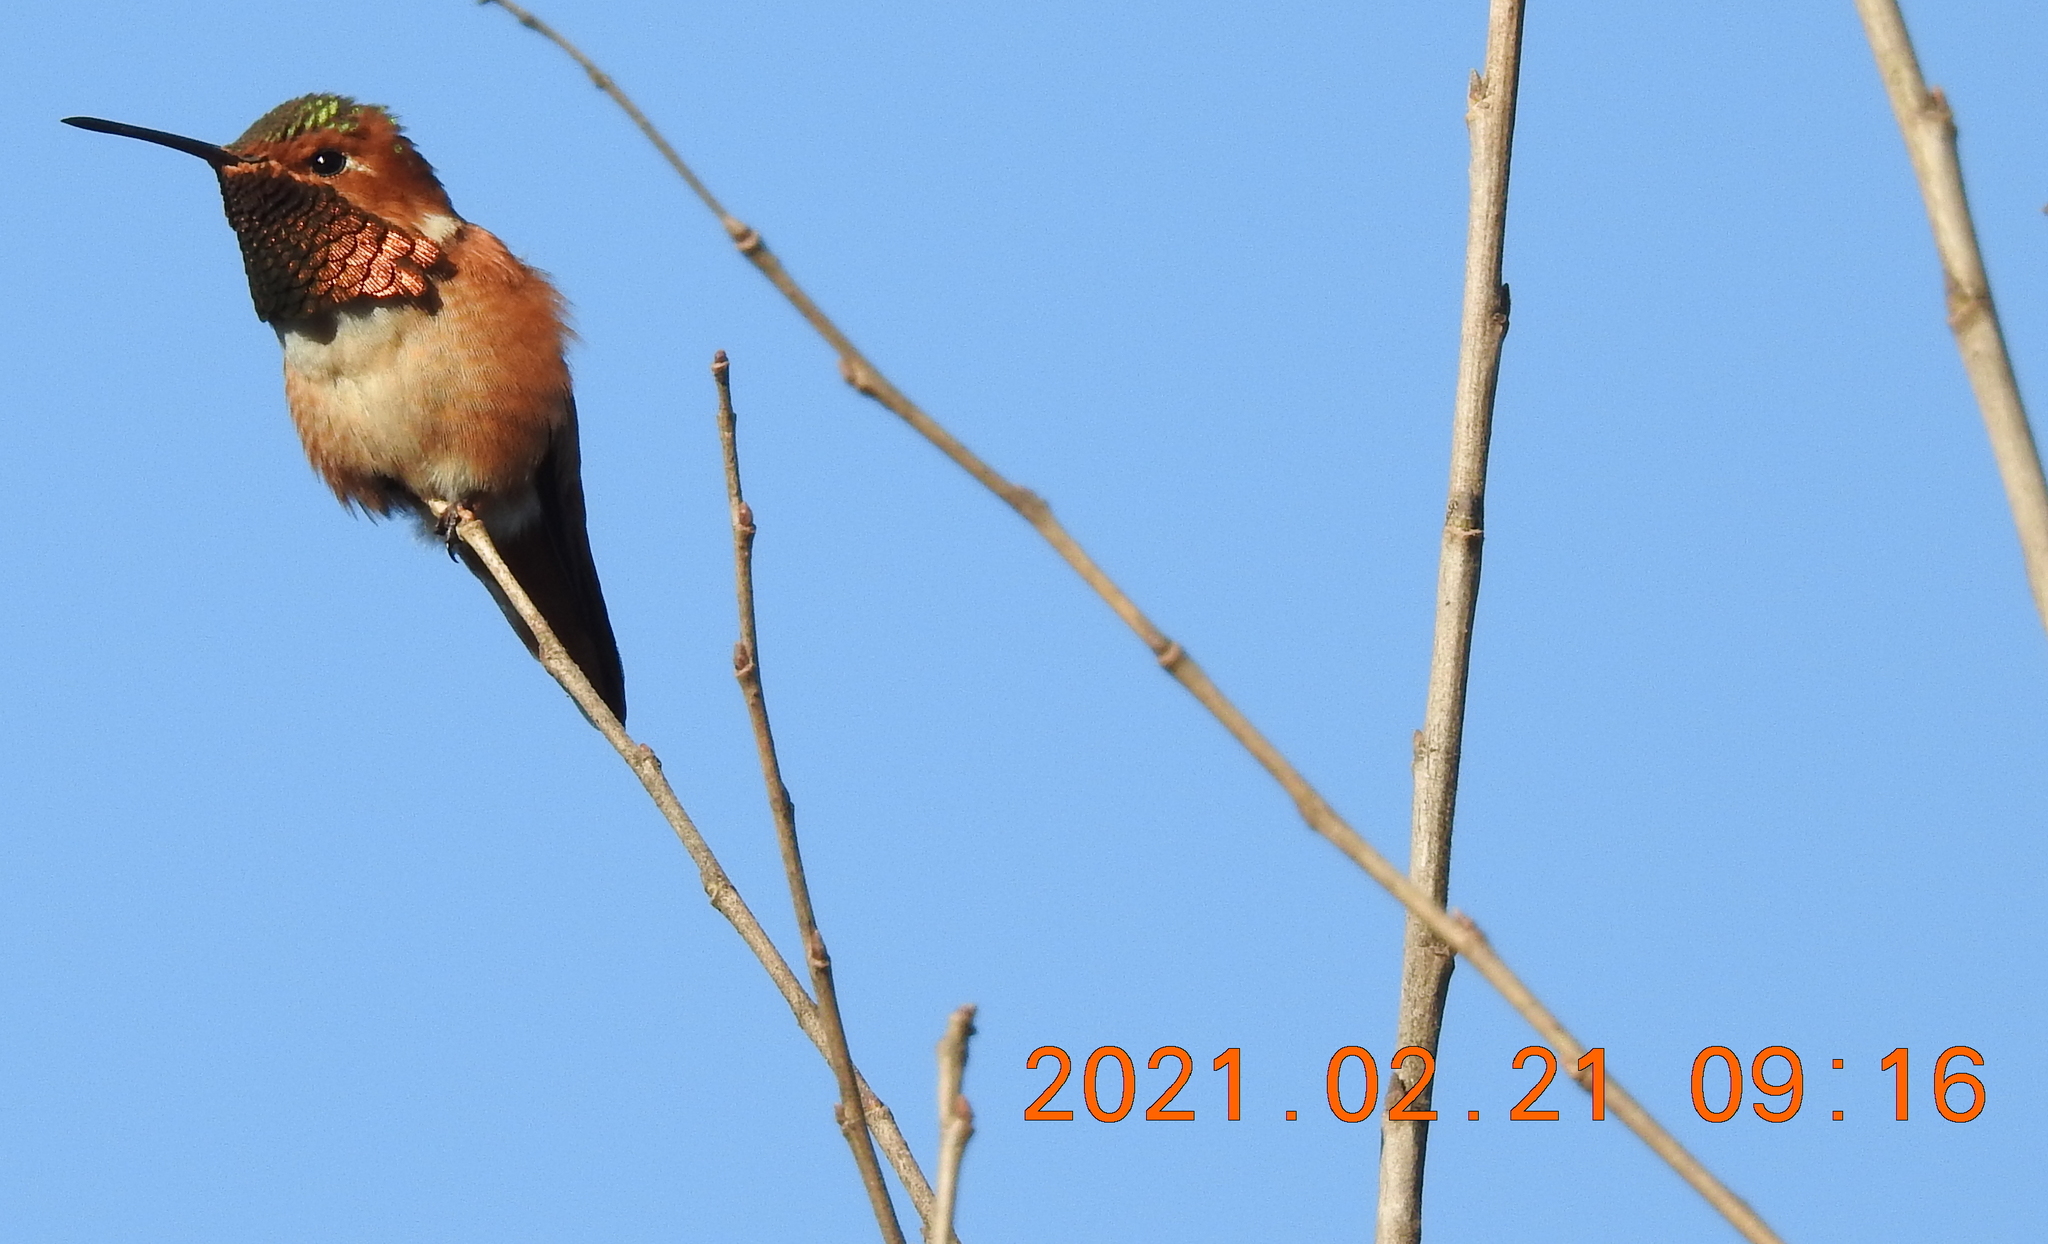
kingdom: Animalia
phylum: Chordata
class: Aves
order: Apodiformes
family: Trochilidae
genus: Selasphorus
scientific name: Selasphorus sasin
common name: Allen's hummingbird
